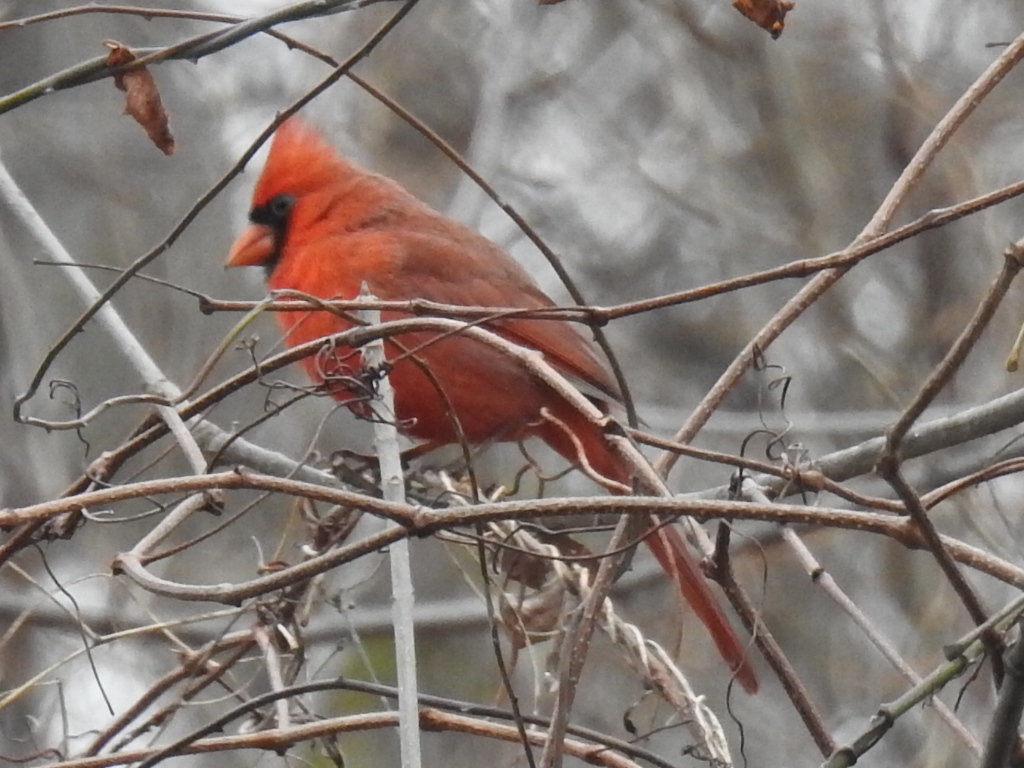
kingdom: Animalia
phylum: Chordata
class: Aves
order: Passeriformes
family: Cardinalidae
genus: Cardinalis
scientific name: Cardinalis cardinalis
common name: Northern cardinal
